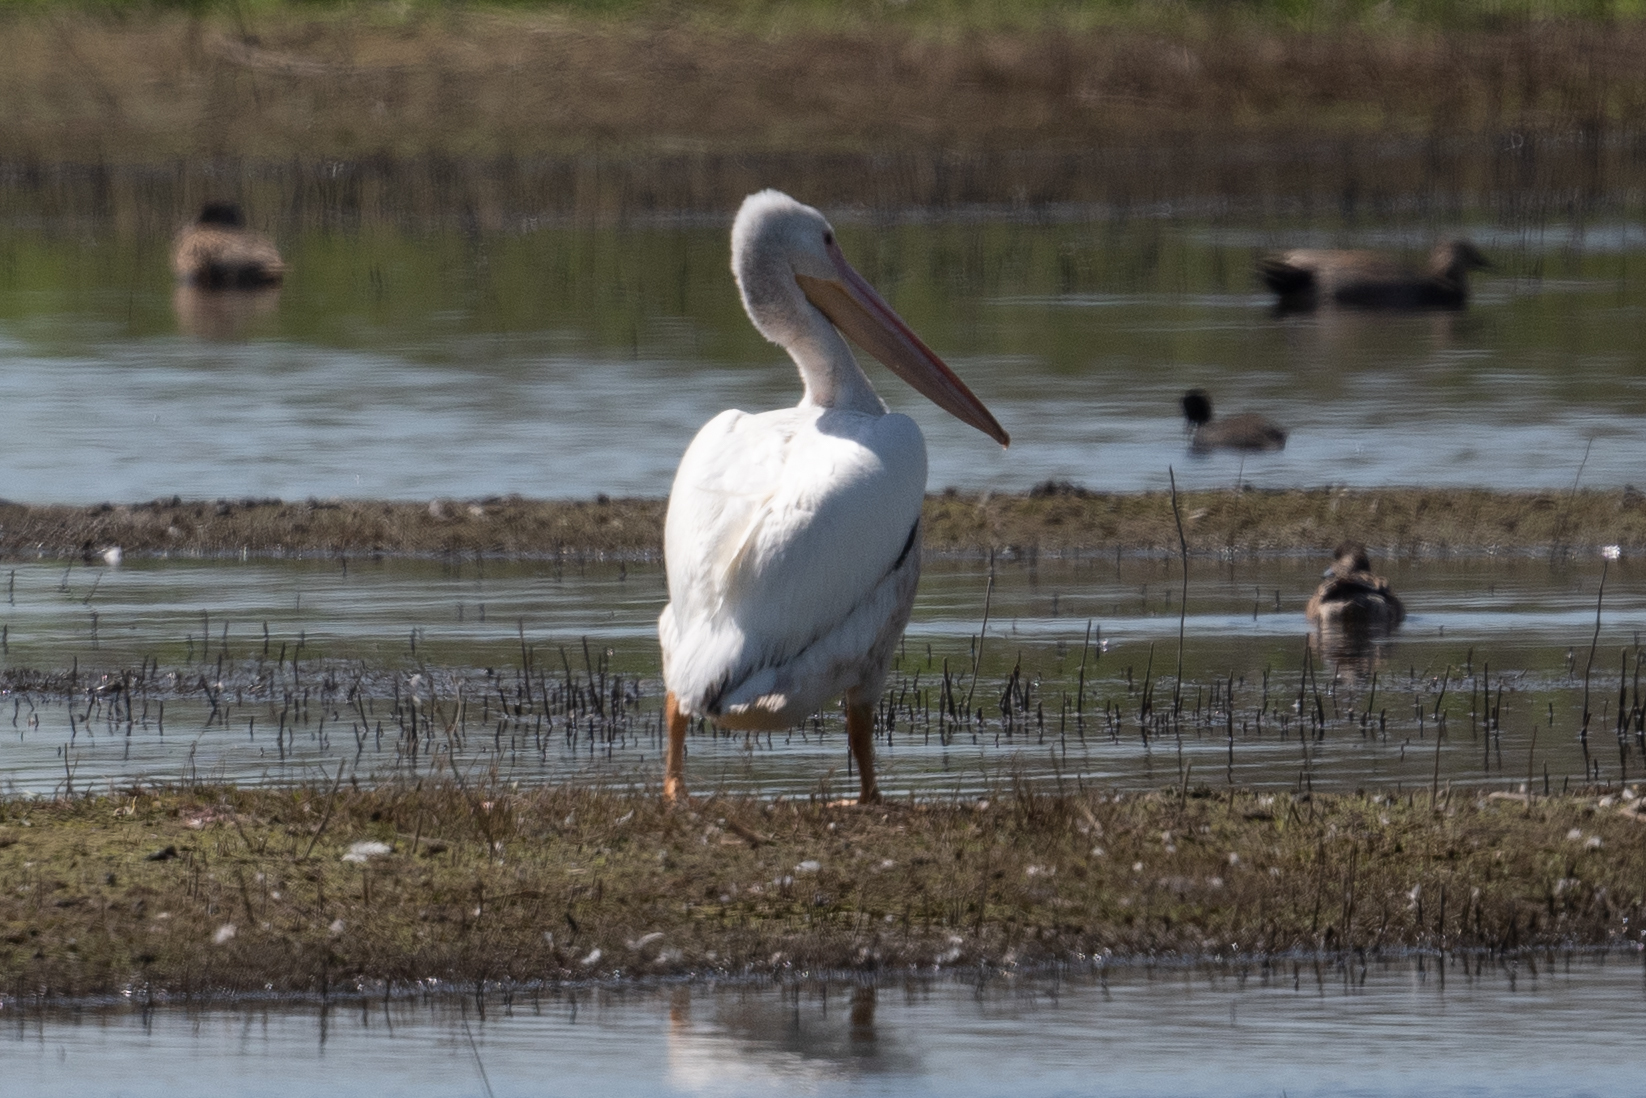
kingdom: Animalia
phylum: Chordata
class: Aves
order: Pelecaniformes
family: Pelecanidae
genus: Pelecanus
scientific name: Pelecanus erythrorhynchos
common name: American white pelican
